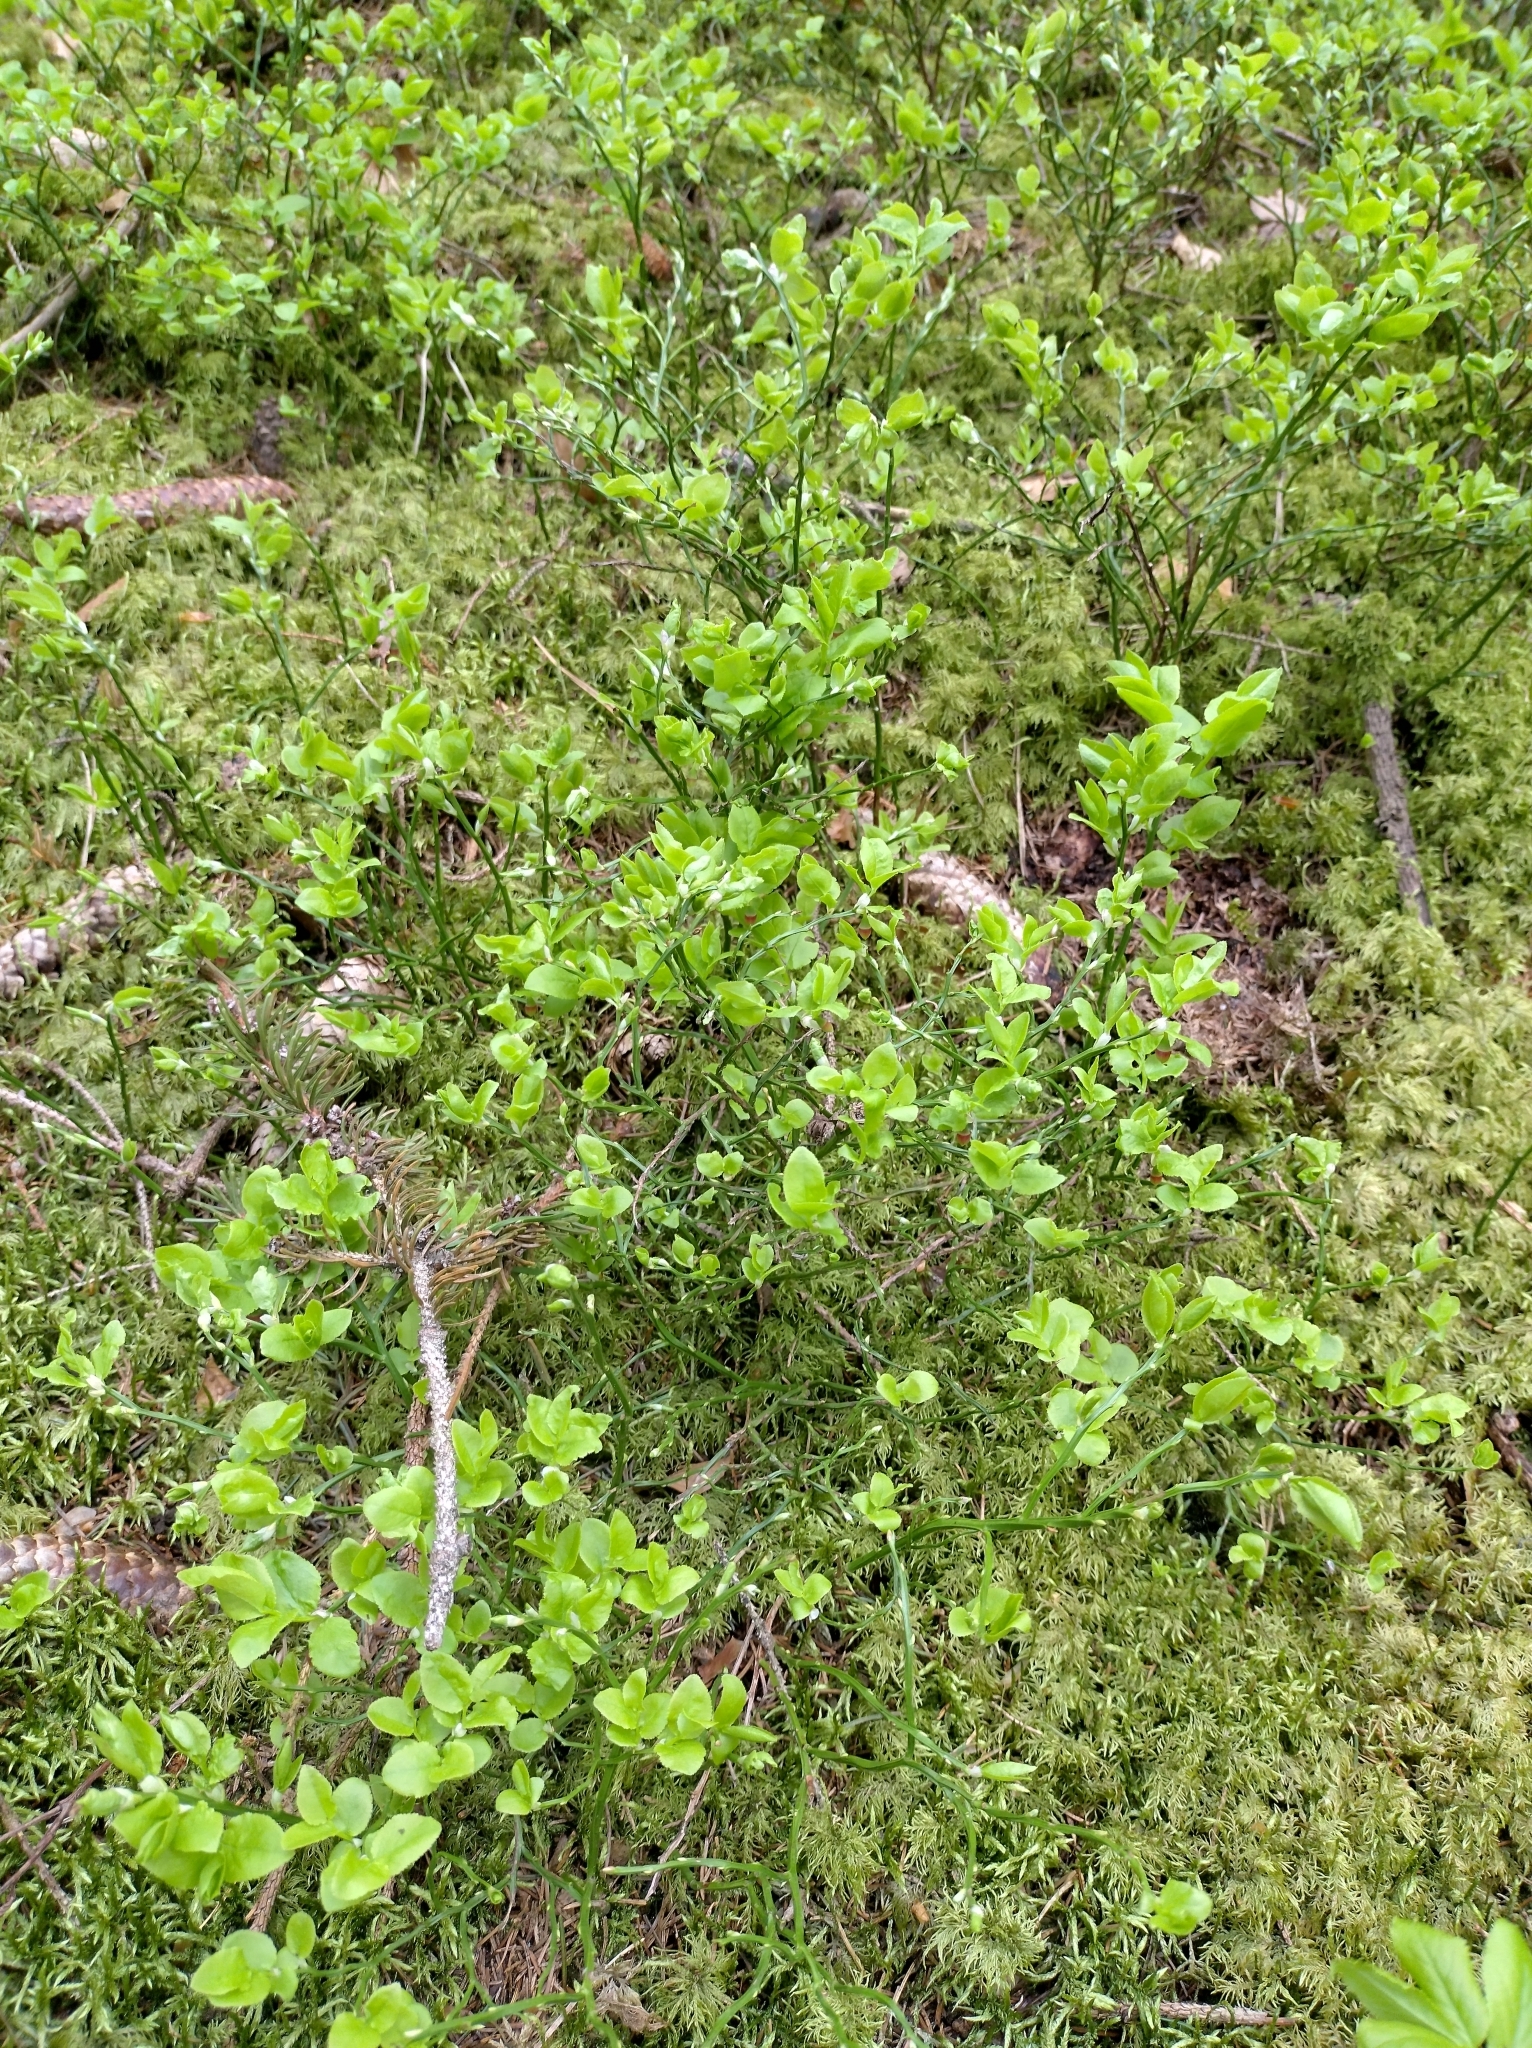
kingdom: Plantae
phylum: Tracheophyta
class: Magnoliopsida
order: Ericales
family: Ericaceae
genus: Vaccinium
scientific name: Vaccinium myrtillus
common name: Bilberry
